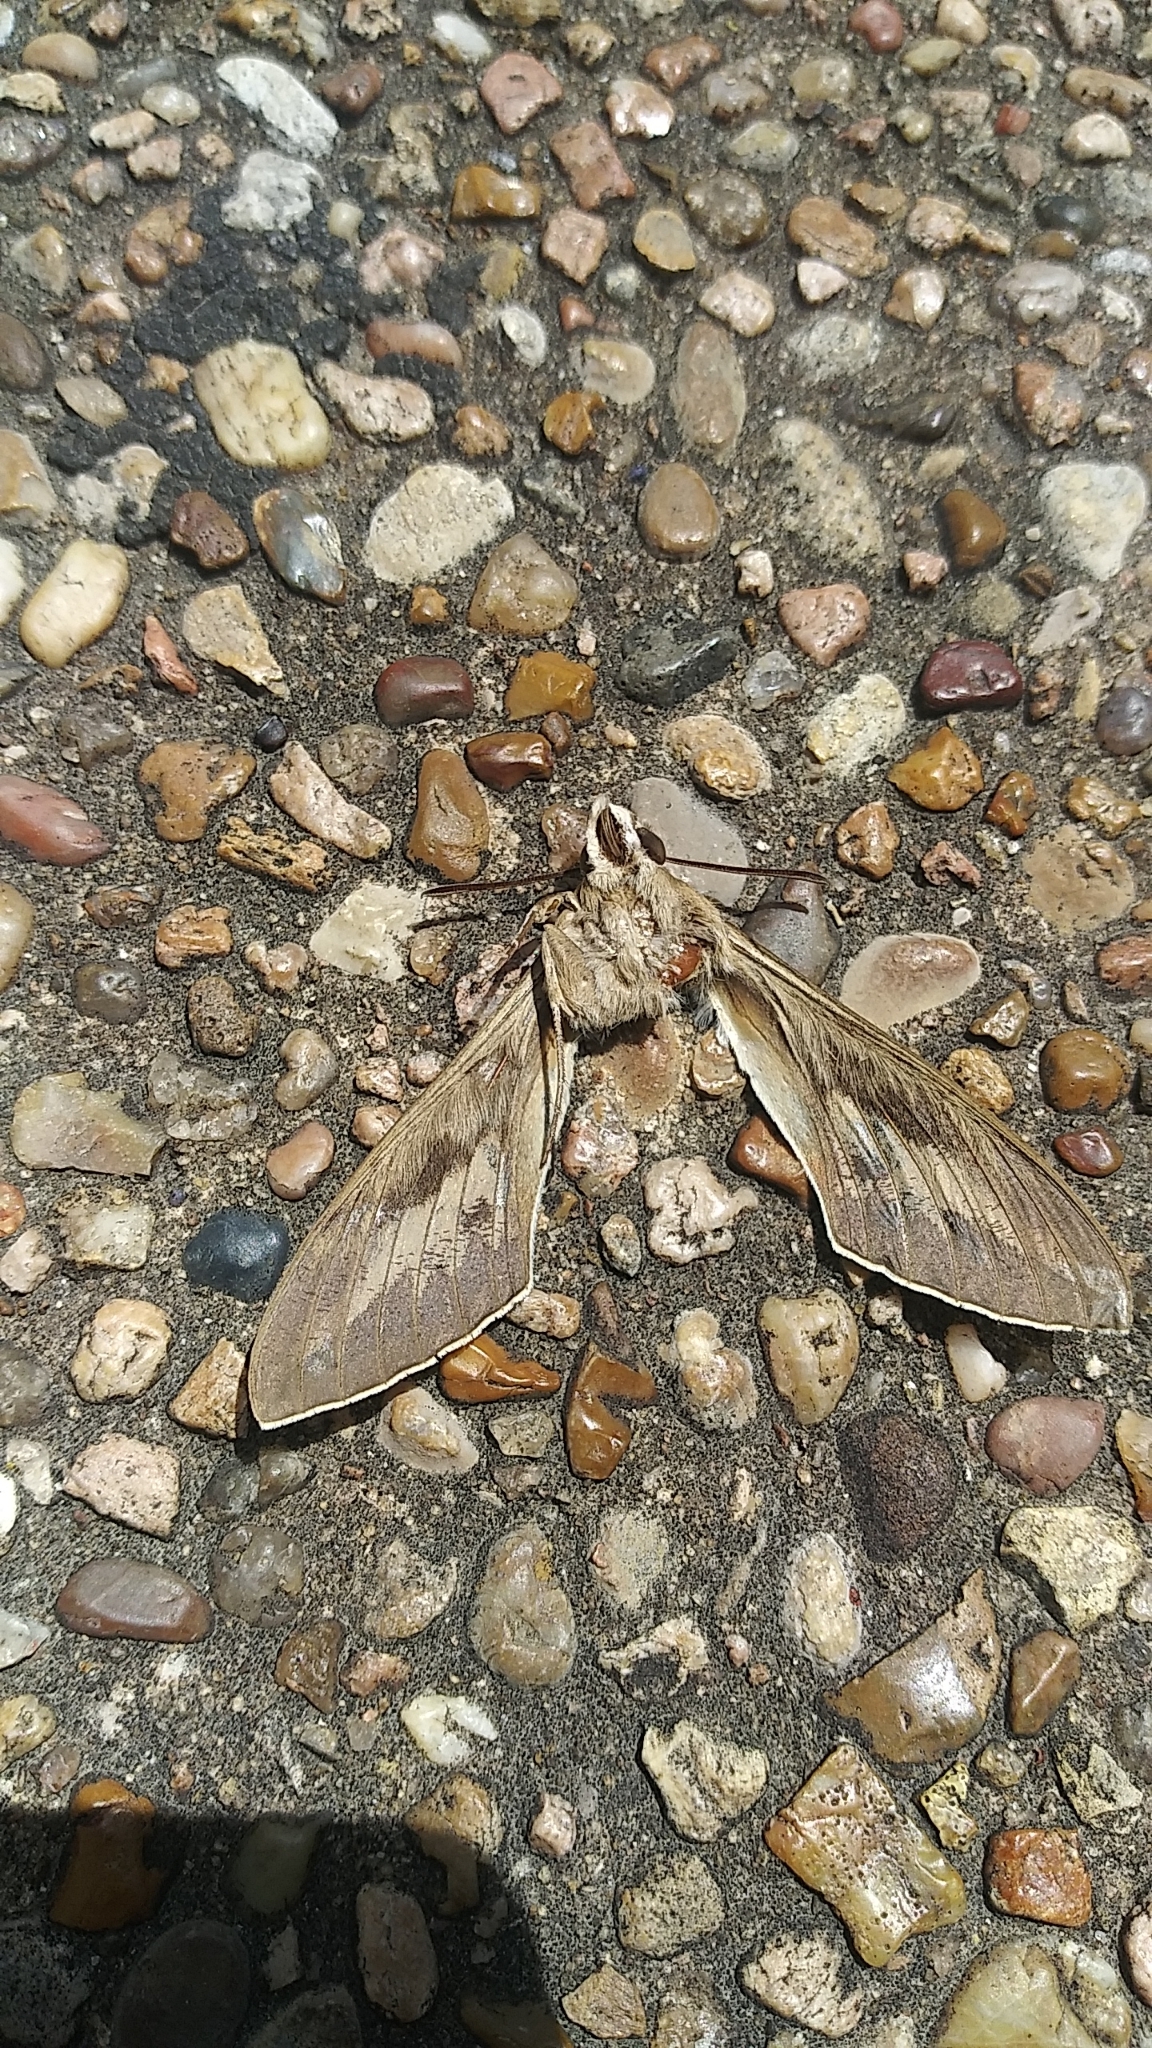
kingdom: Animalia
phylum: Arthropoda
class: Insecta
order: Lepidoptera
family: Sphingidae
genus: Hyles
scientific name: Hyles lineata
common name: White-lined sphinx
